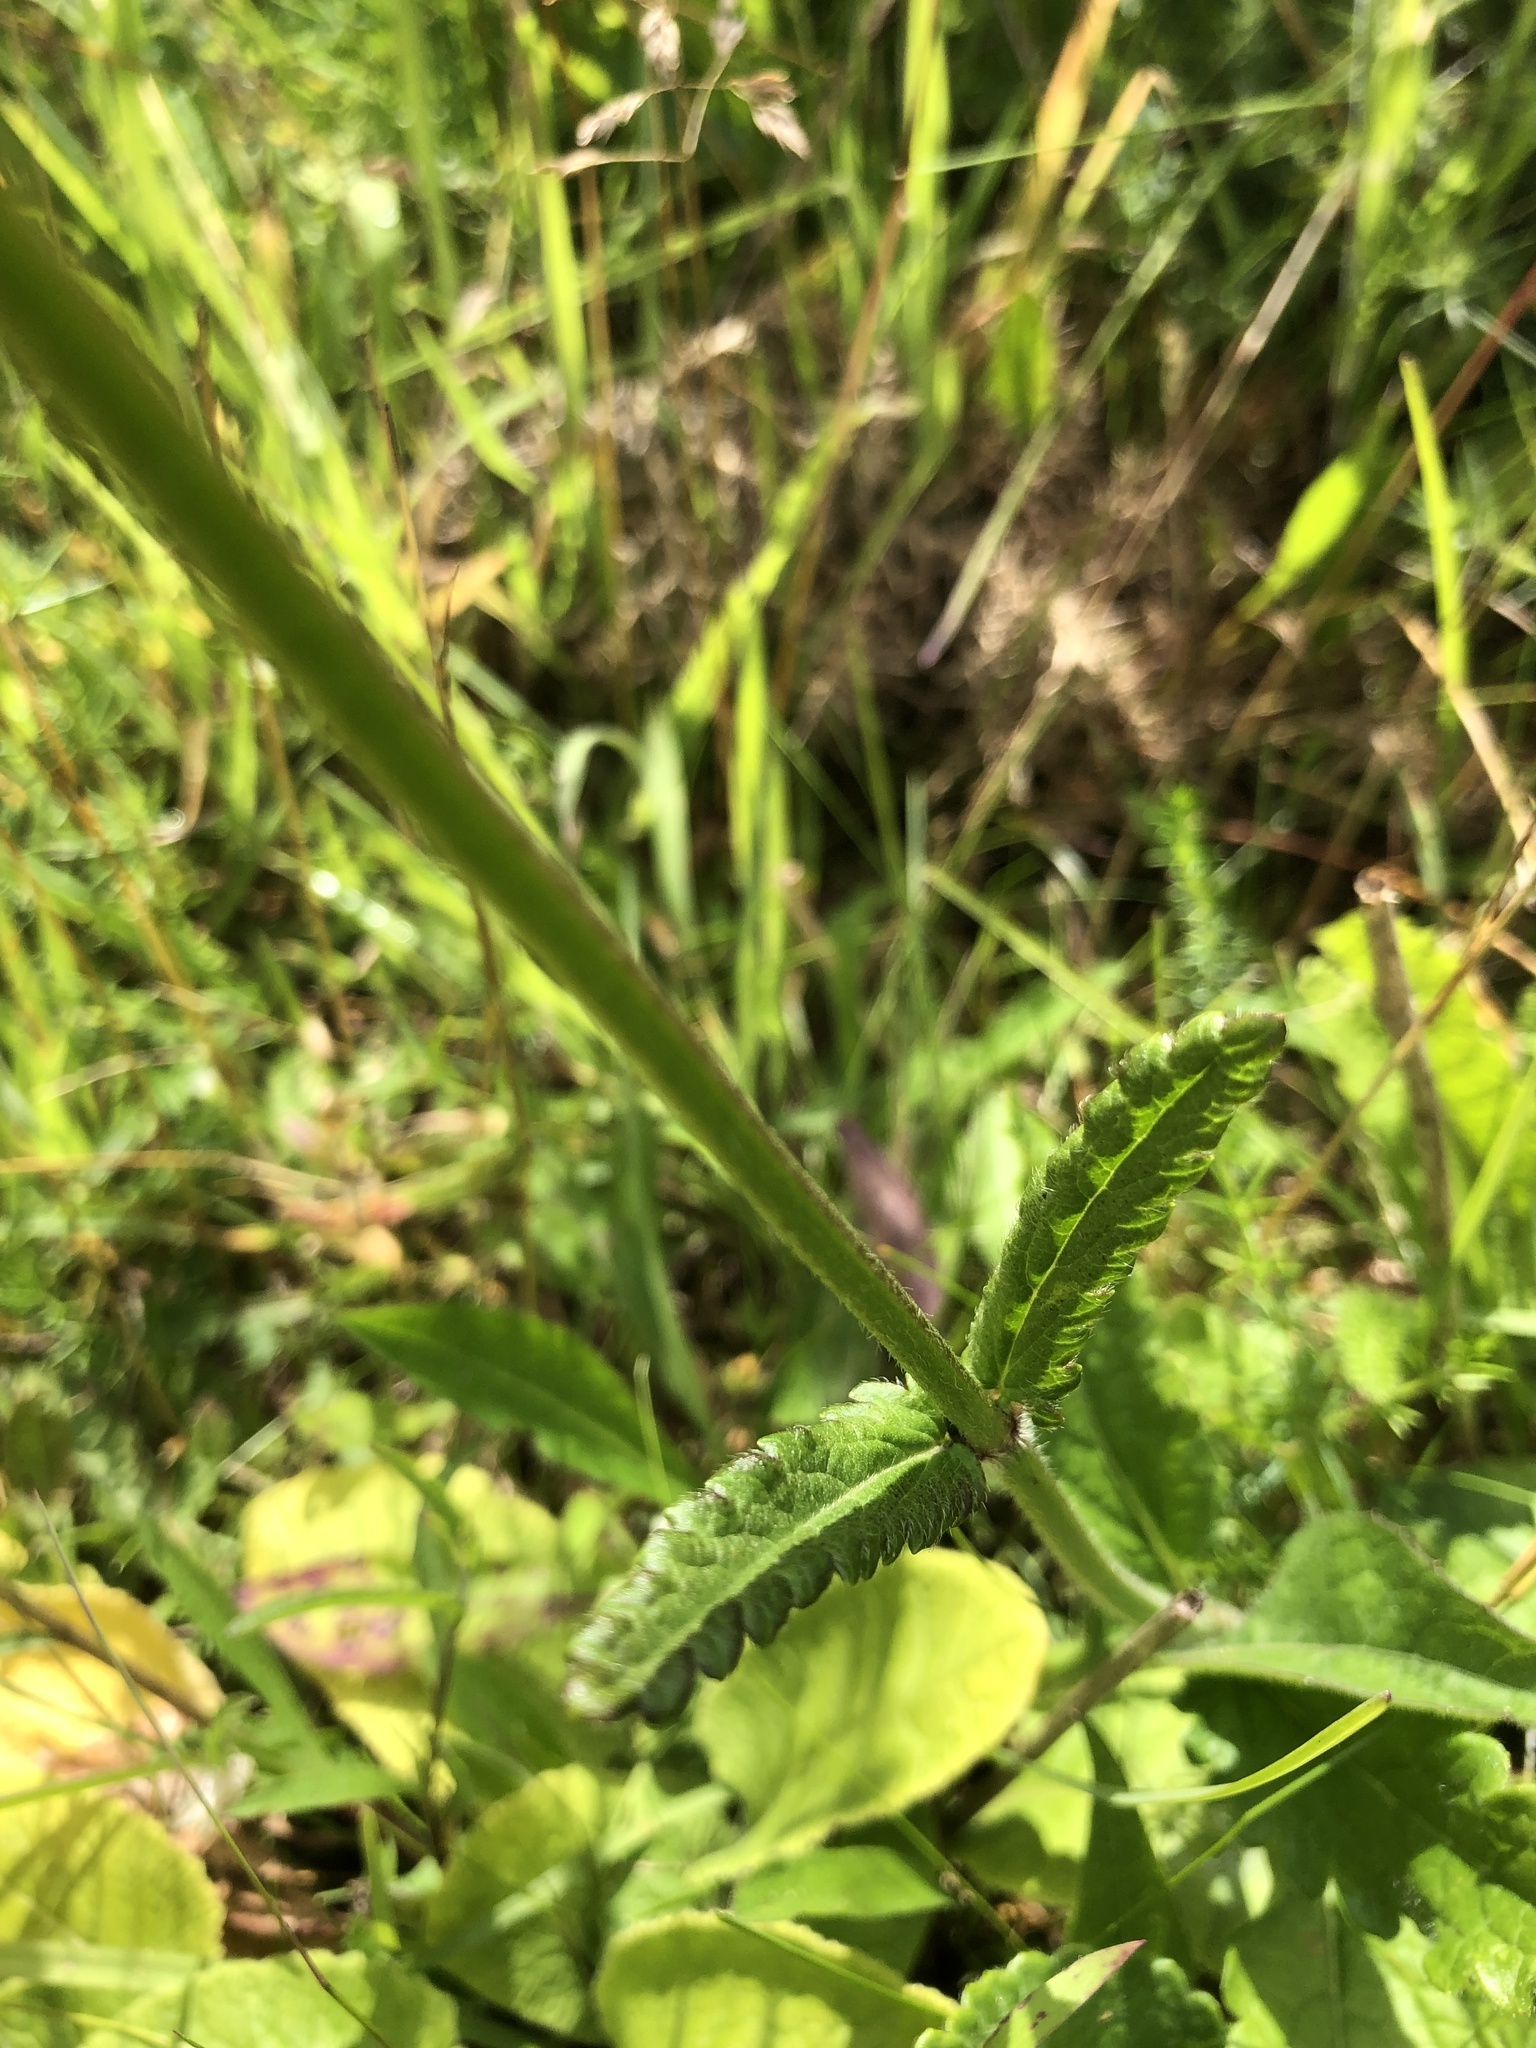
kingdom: Plantae
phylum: Tracheophyta
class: Magnoliopsida
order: Lamiales
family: Lamiaceae
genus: Betonica
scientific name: Betonica officinalis
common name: Bishop's-wort
